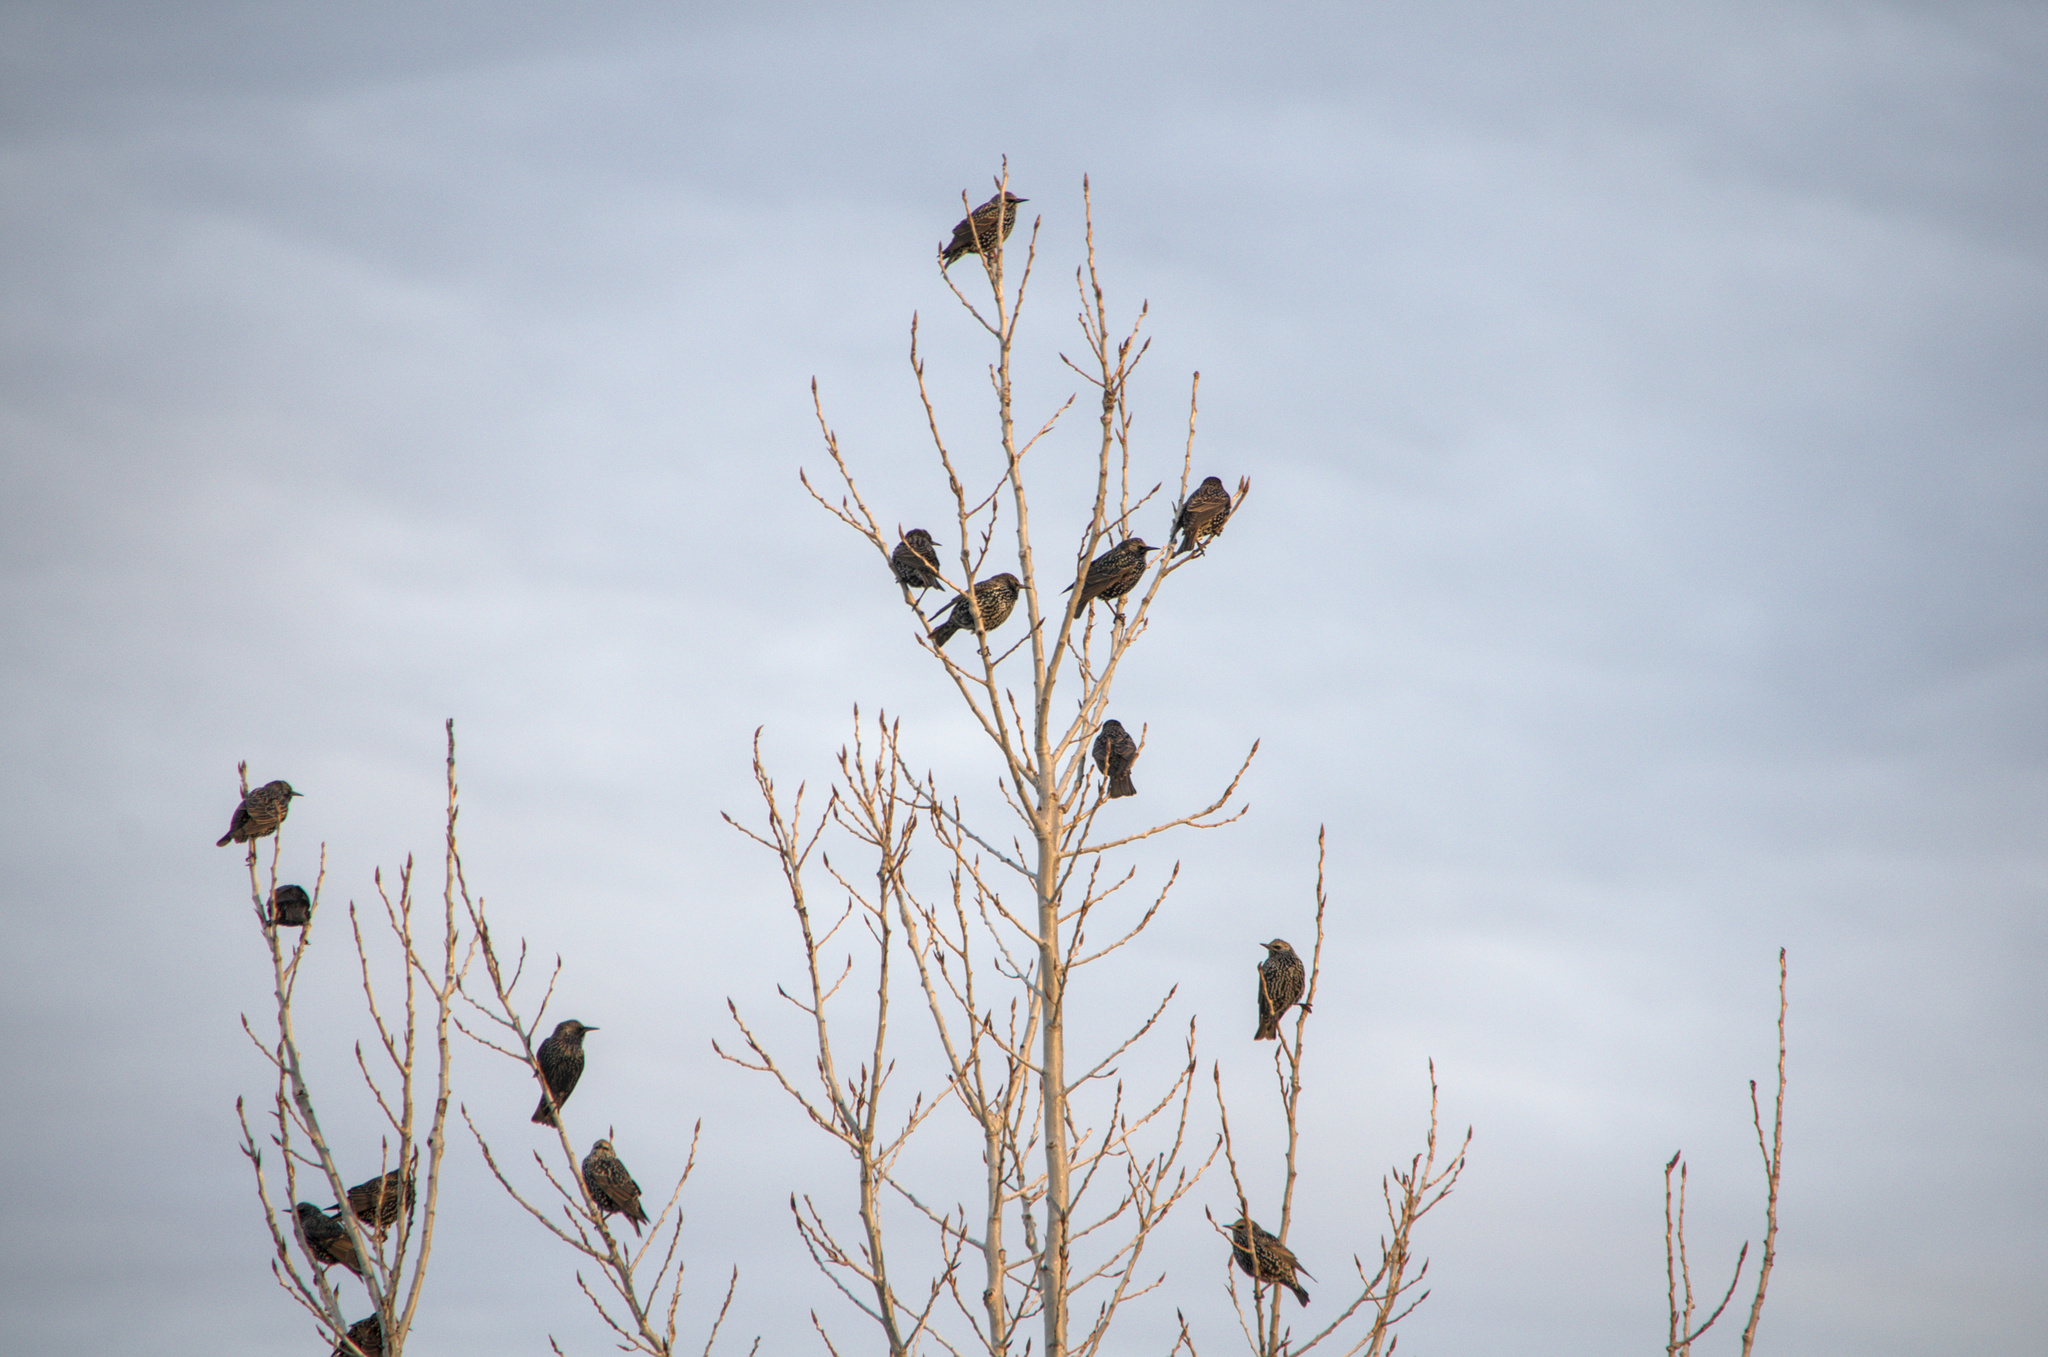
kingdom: Animalia
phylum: Chordata
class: Aves
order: Passeriformes
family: Sturnidae
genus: Sturnus
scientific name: Sturnus vulgaris
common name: Common starling
